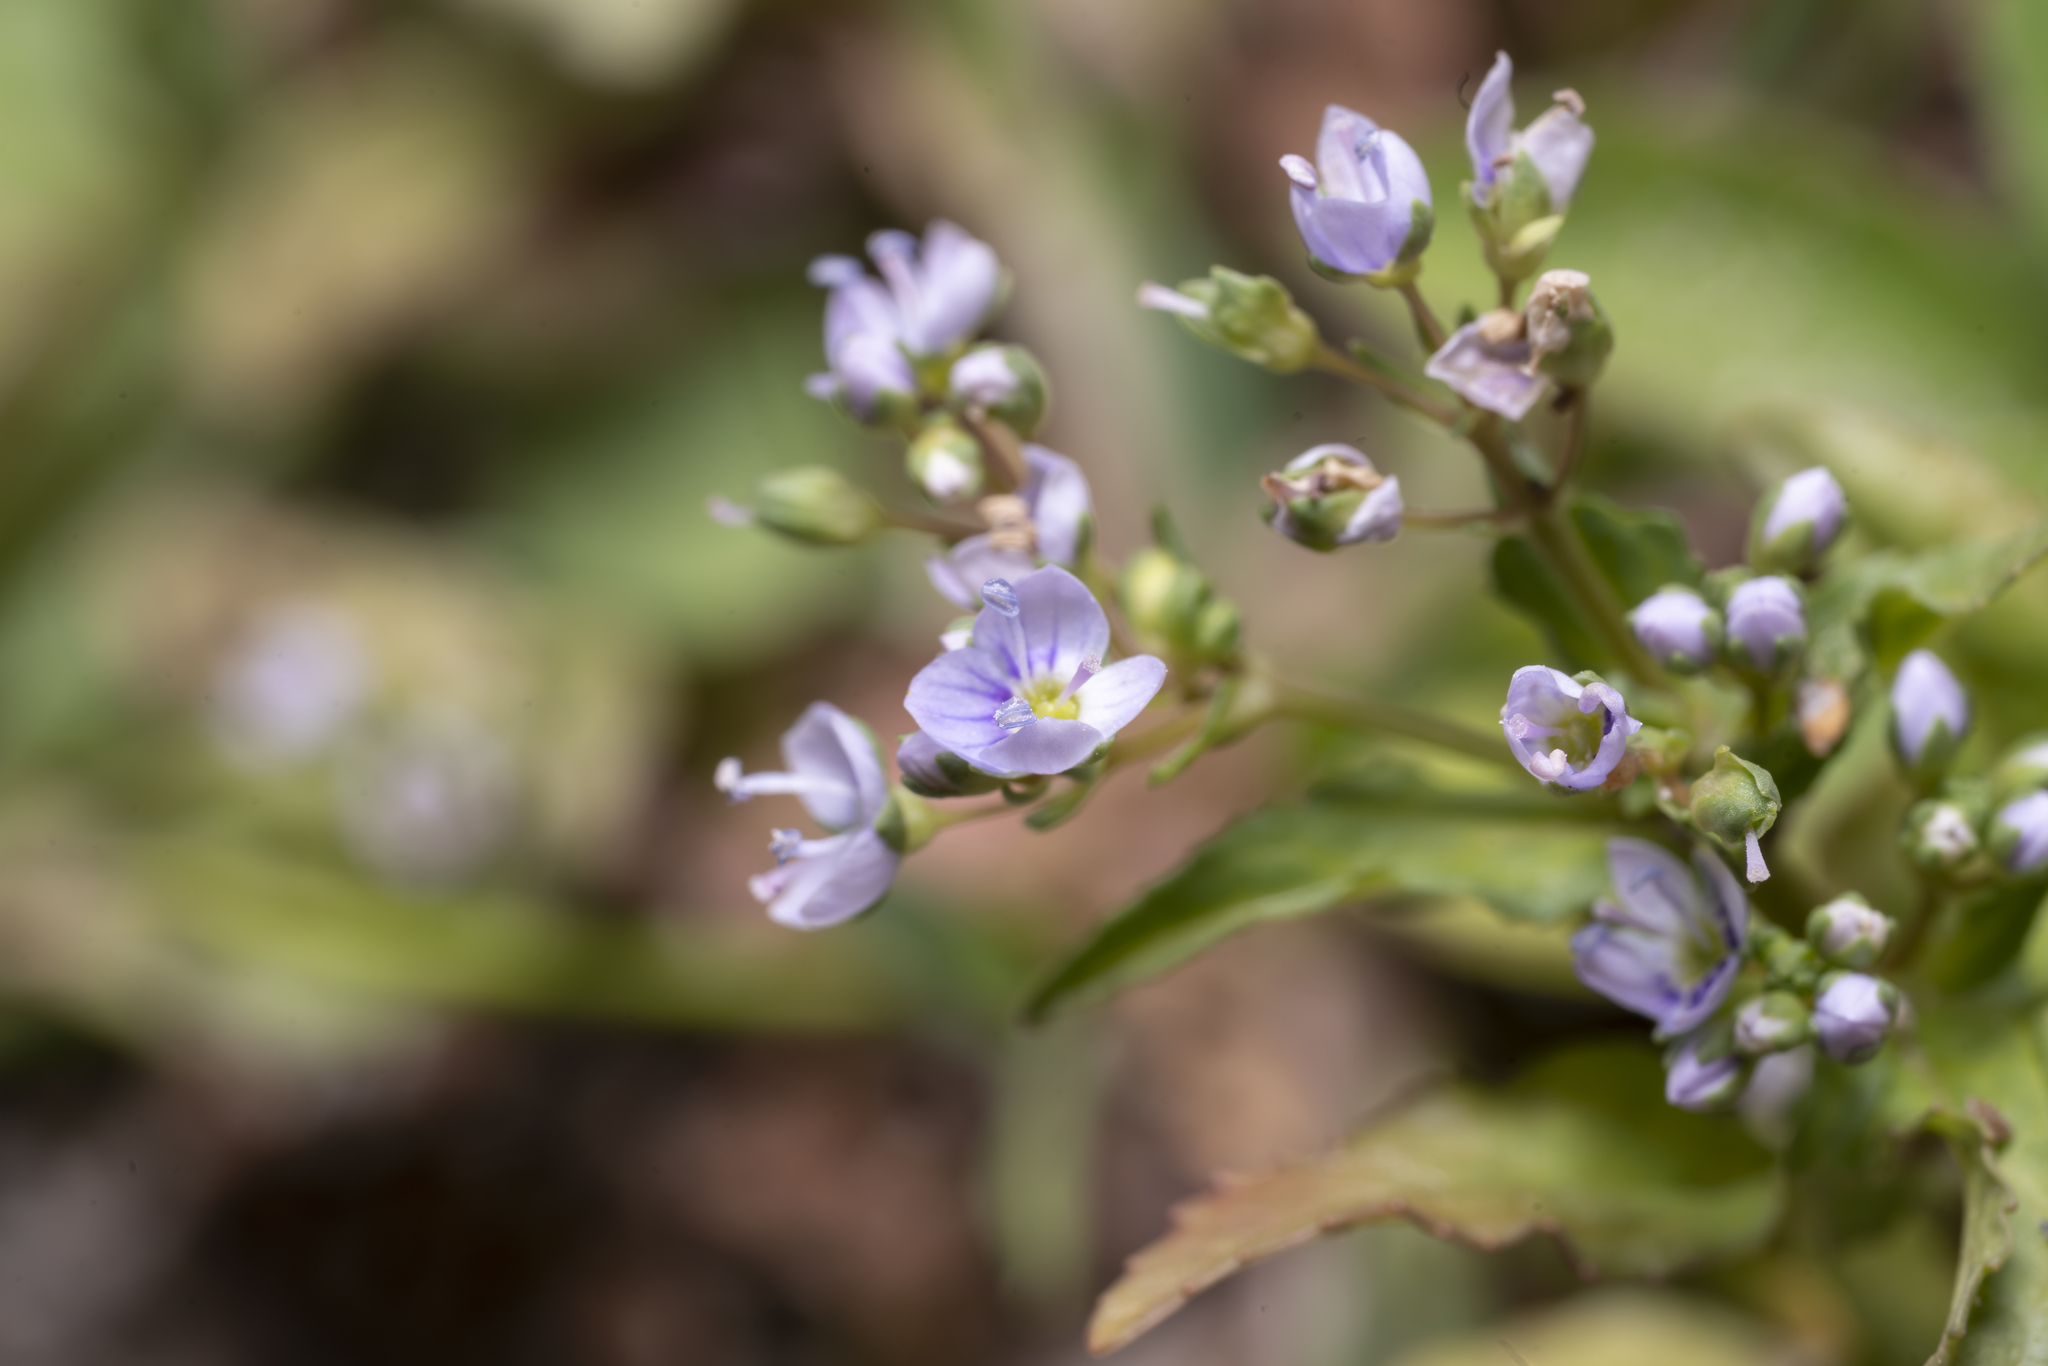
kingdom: Plantae
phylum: Tracheophyta
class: Magnoliopsida
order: Lamiales
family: Plantaginaceae
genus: Veronica
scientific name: Veronica anagallis-aquatica
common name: Water speedwell
